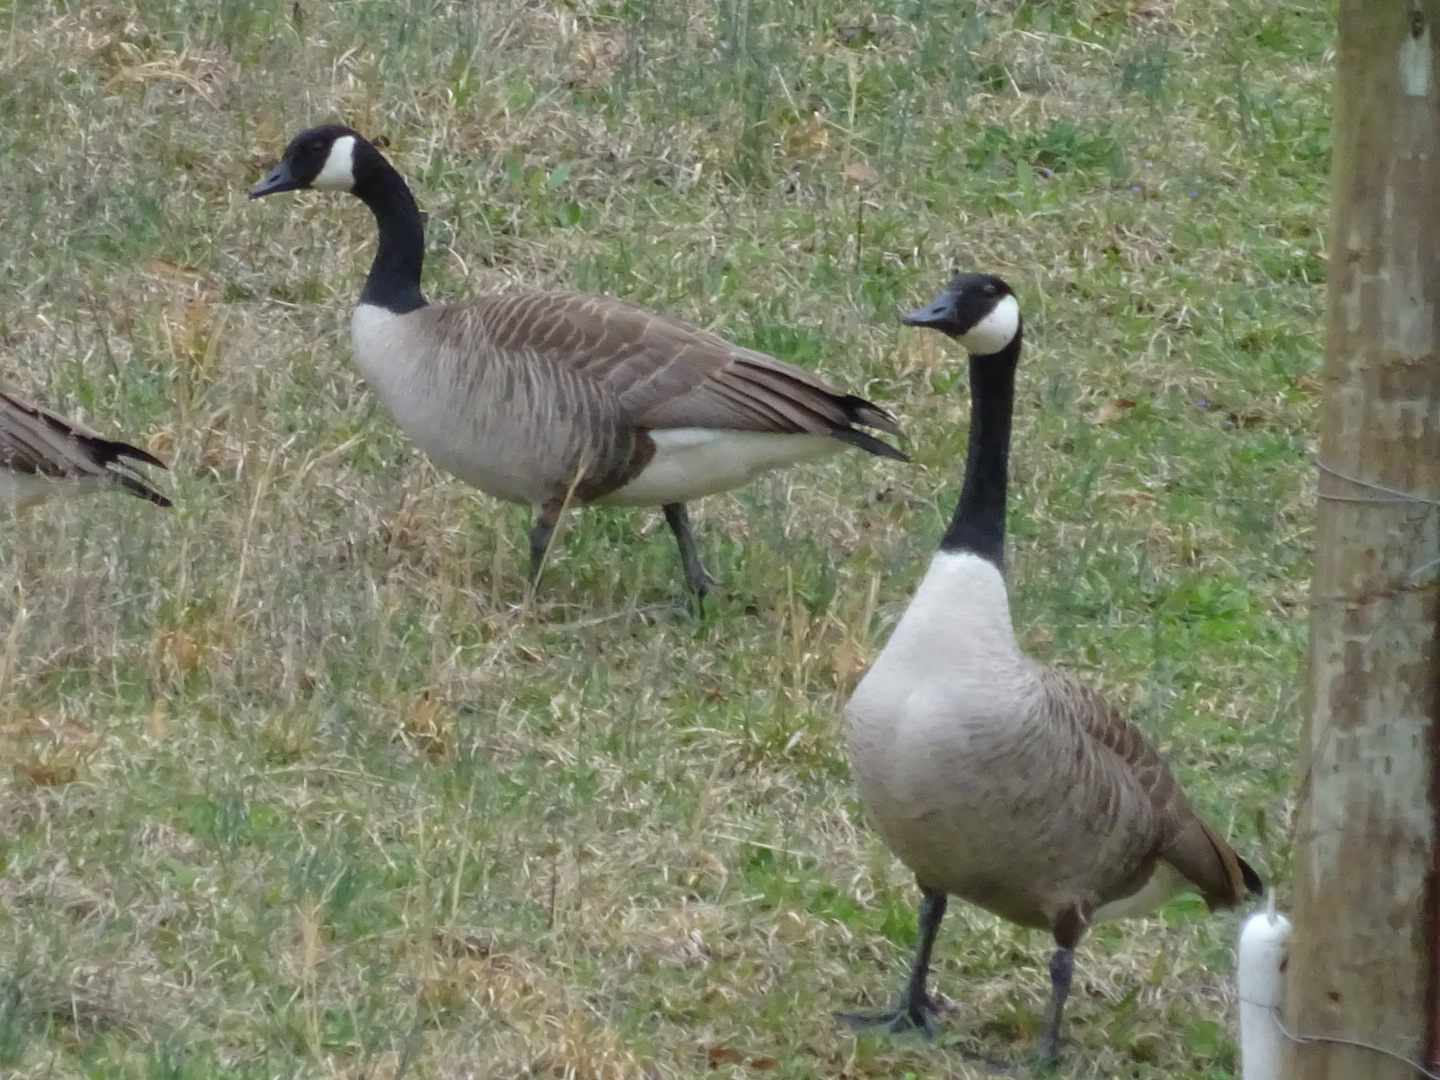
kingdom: Animalia
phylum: Chordata
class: Aves
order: Anseriformes
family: Anatidae
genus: Branta
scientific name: Branta canadensis
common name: Canada goose
